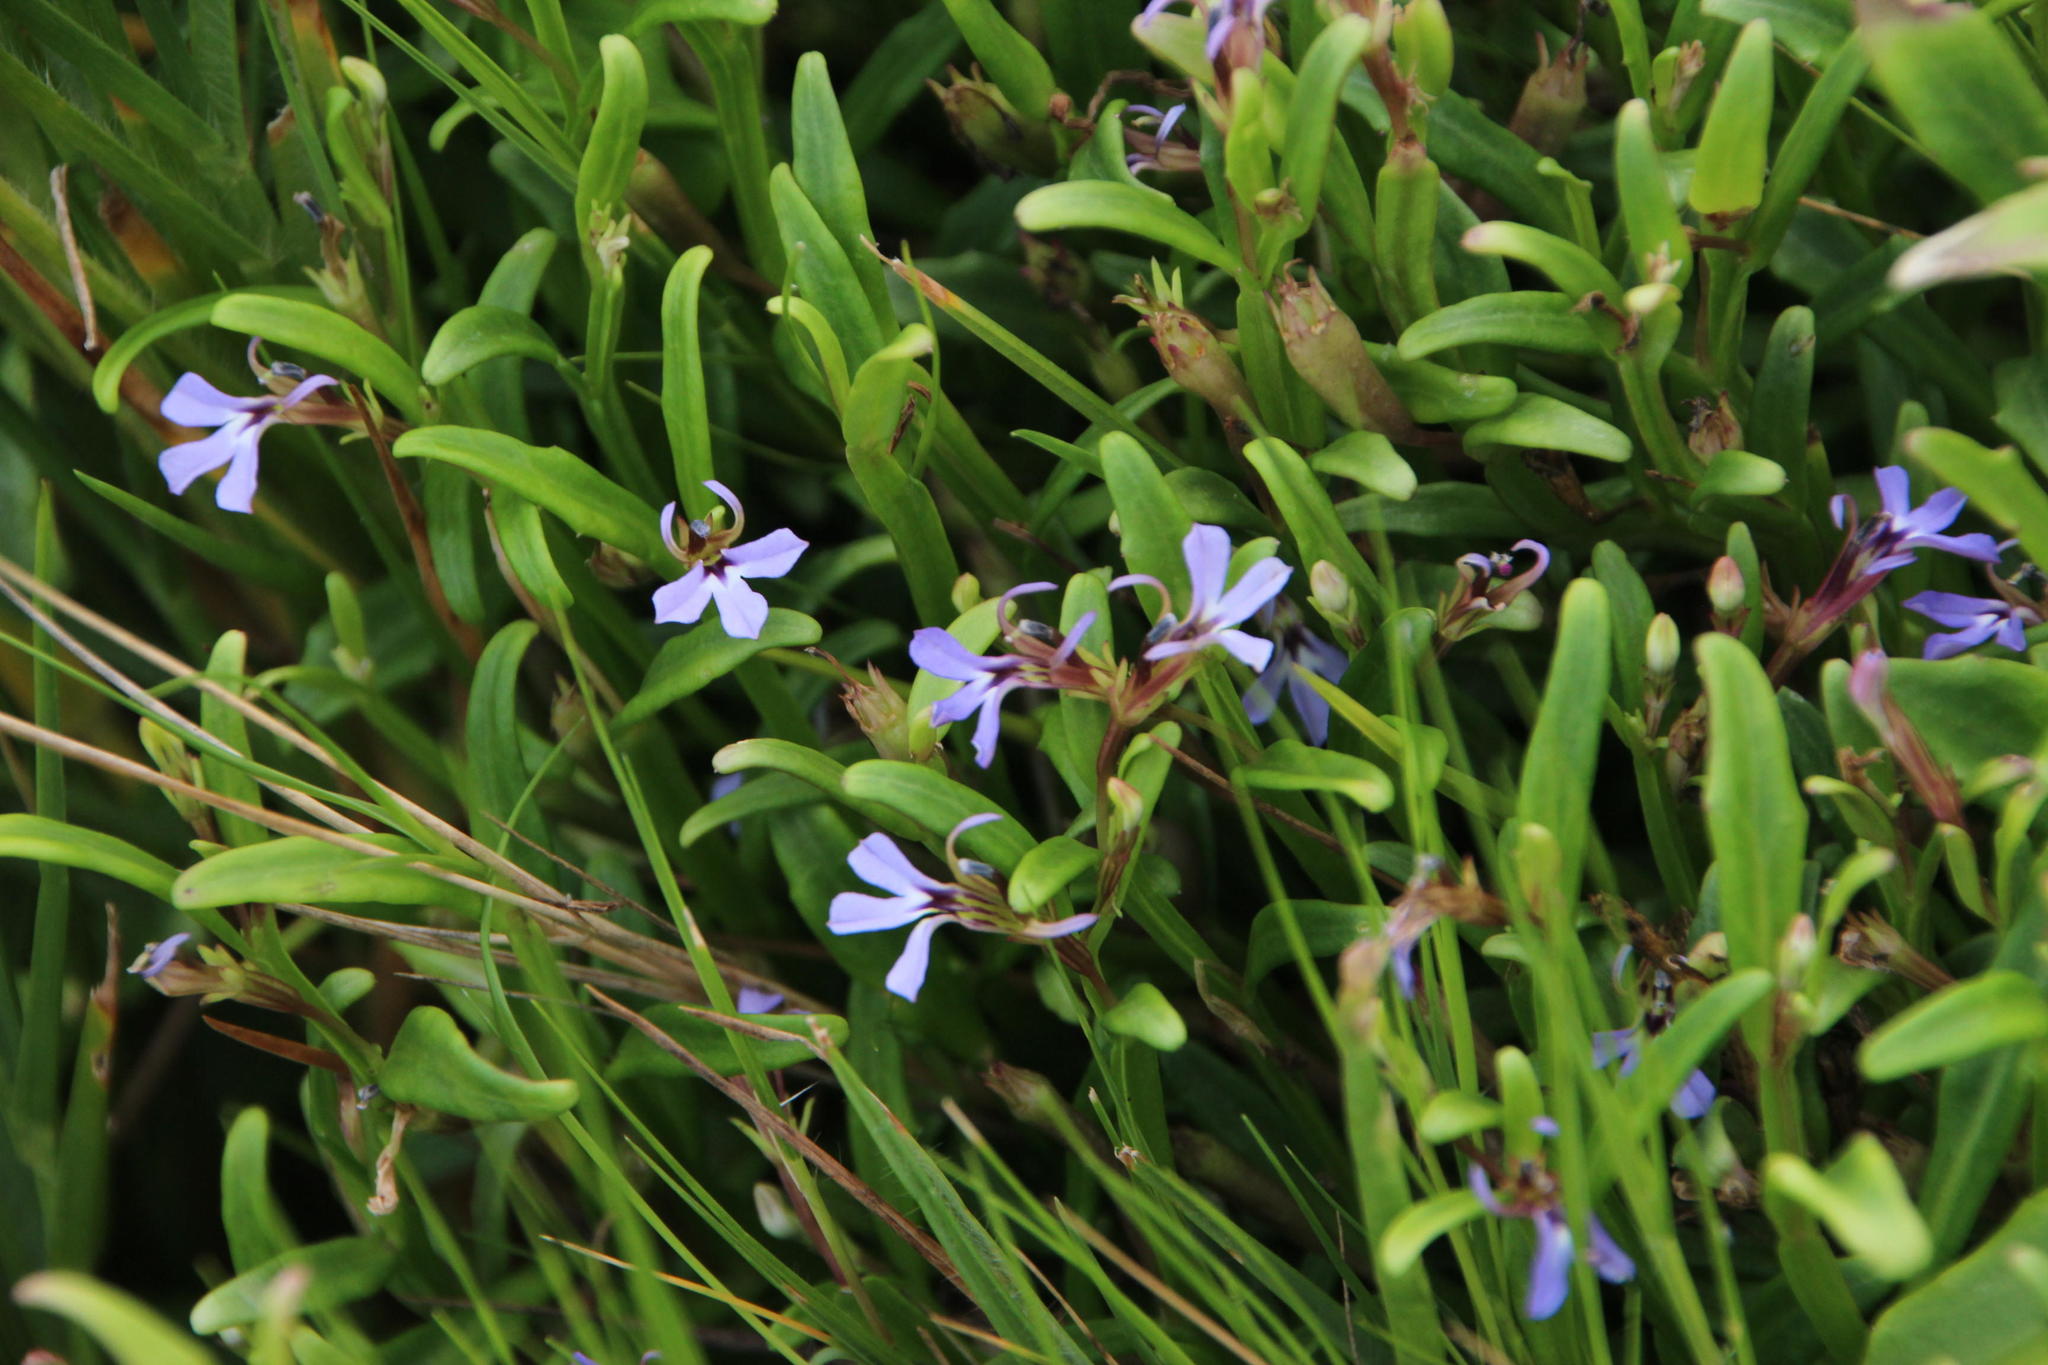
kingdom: Plantae
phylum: Tracheophyta
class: Magnoliopsida
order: Asterales
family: Campanulaceae
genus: Lobelia
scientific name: Lobelia anceps
